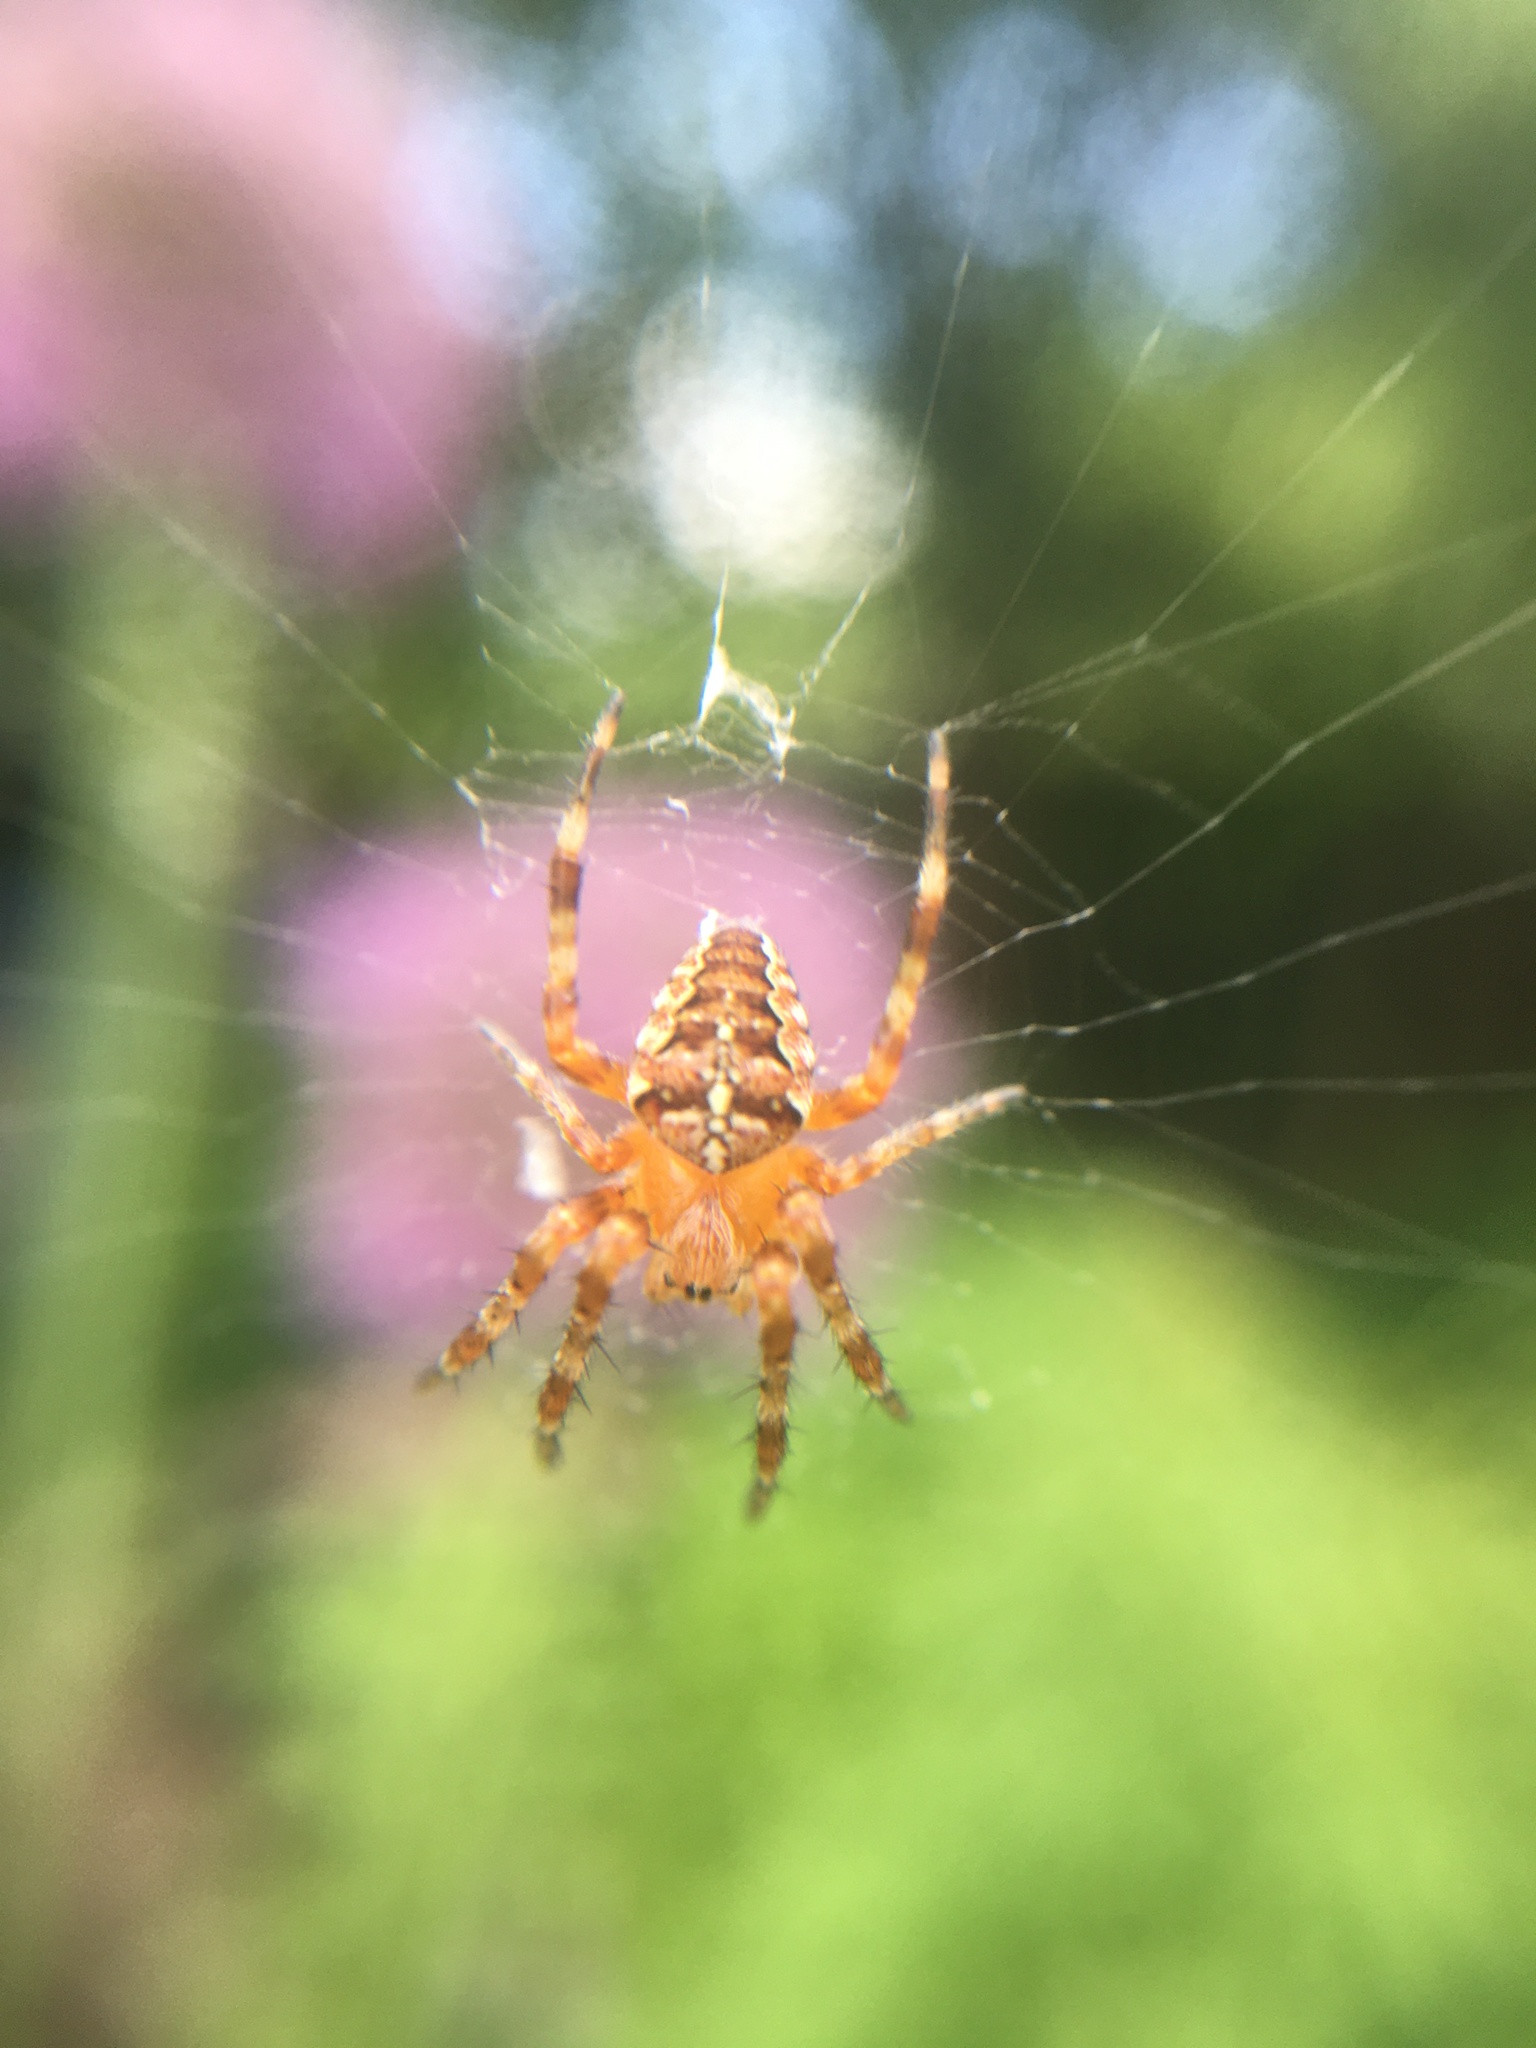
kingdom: Animalia
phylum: Arthropoda
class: Arachnida
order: Araneae
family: Araneidae
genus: Araneus
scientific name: Araneus diadematus
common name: Cross orbweaver
